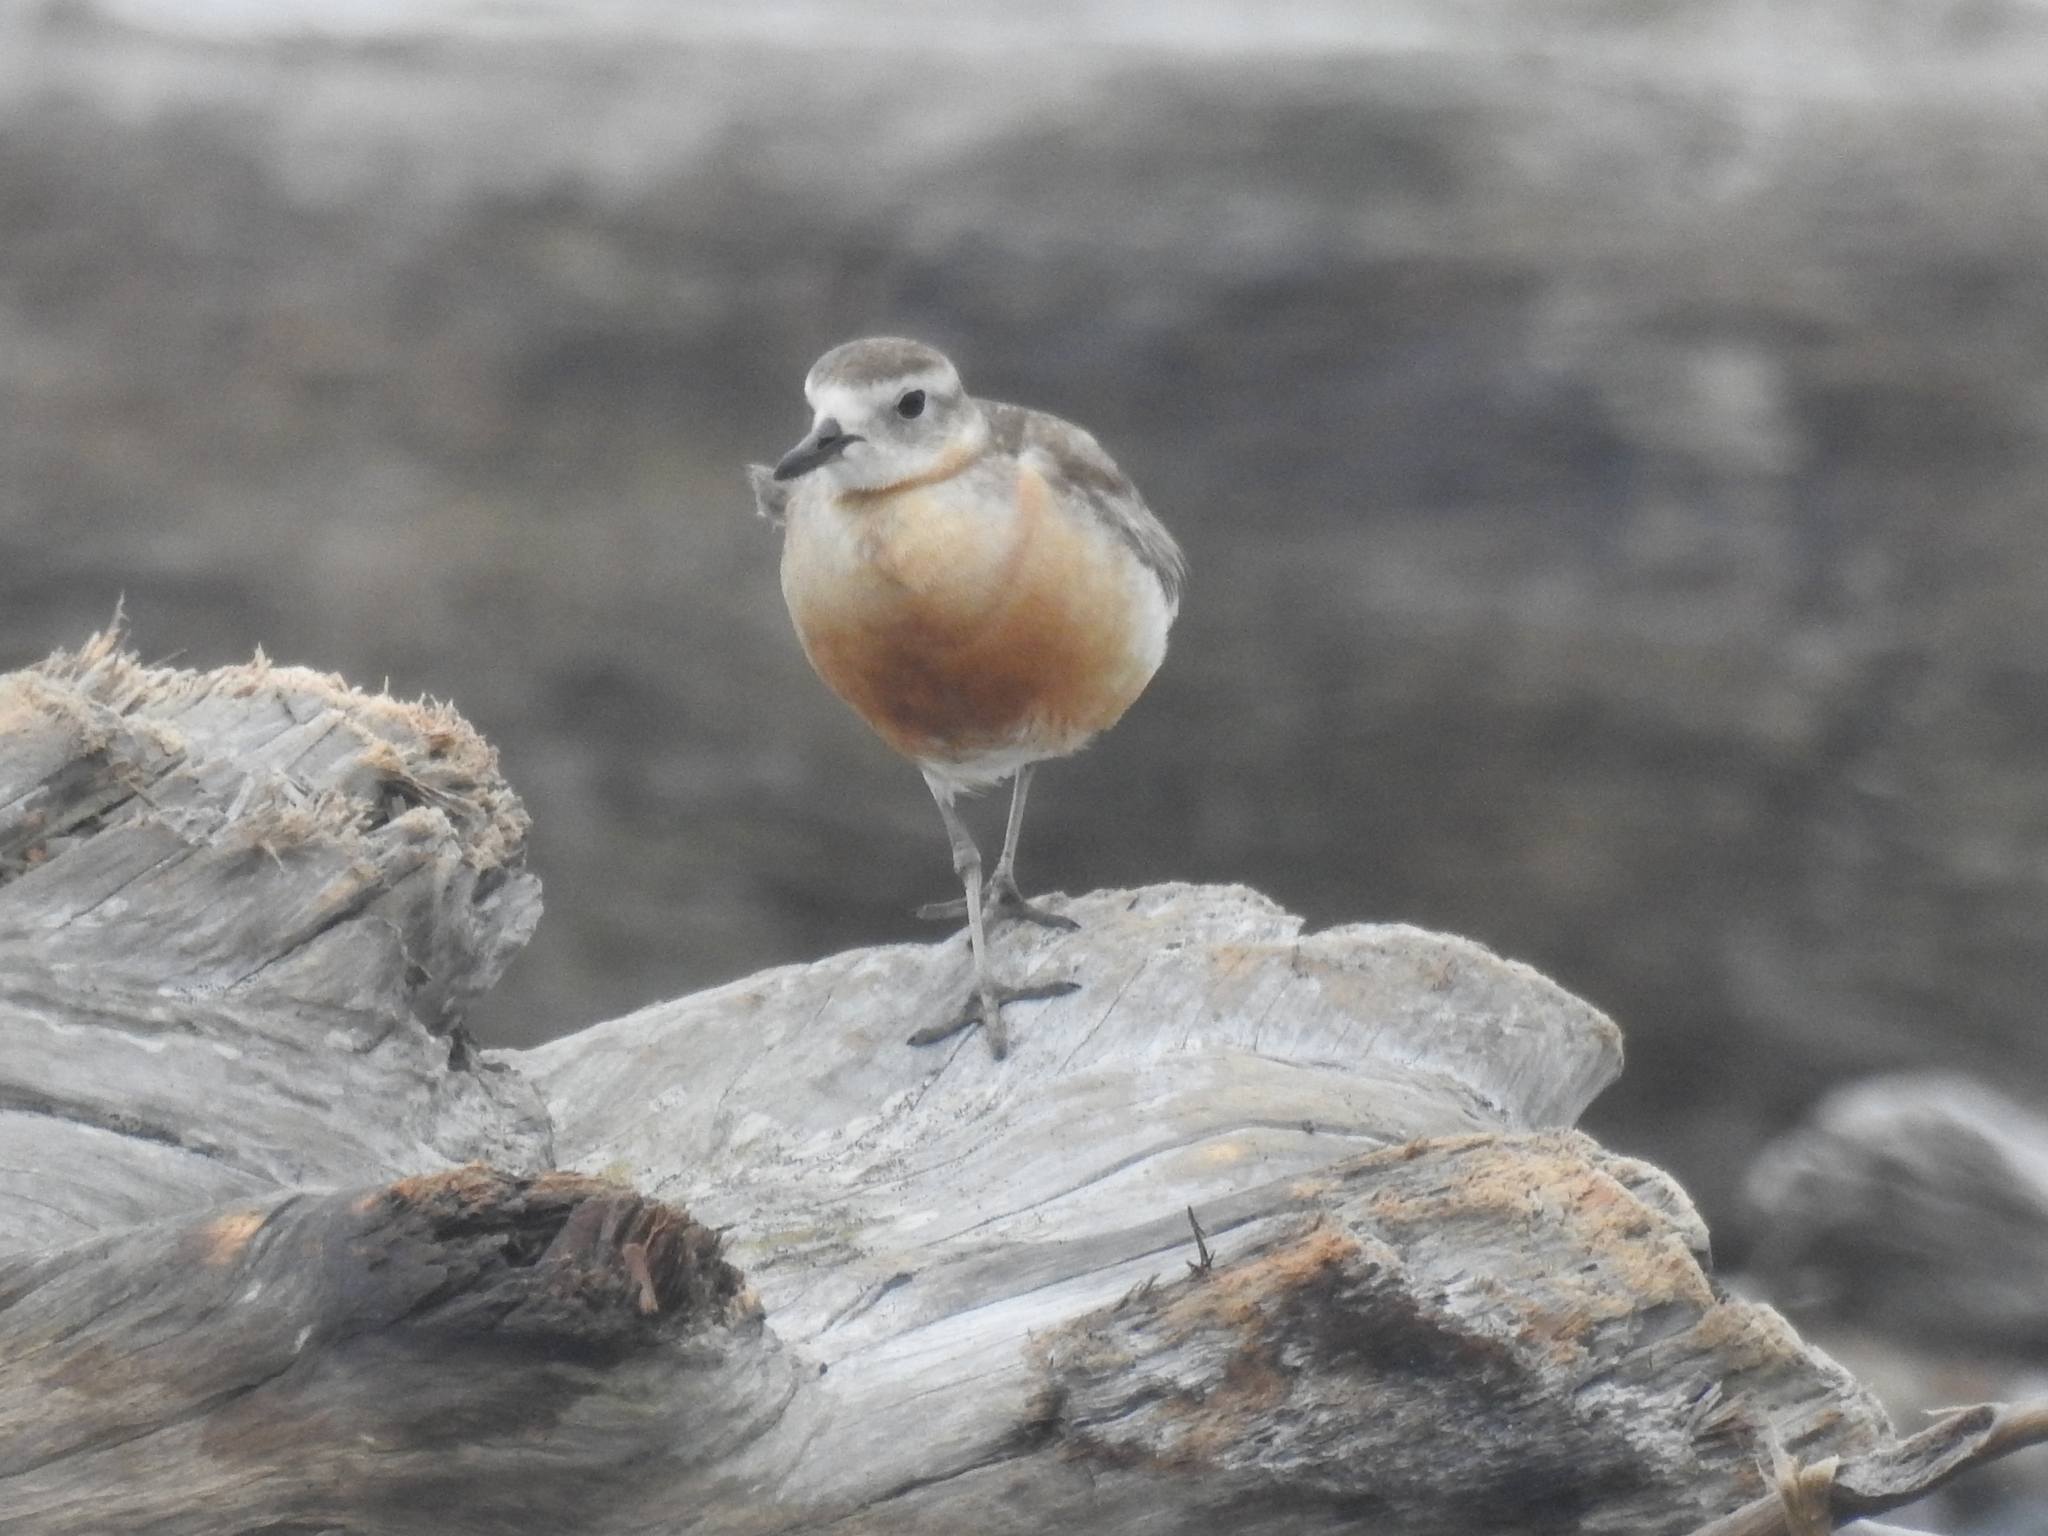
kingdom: Animalia
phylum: Chordata
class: Aves
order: Charadriiformes
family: Charadriidae
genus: Anarhynchus
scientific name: Anarhynchus
